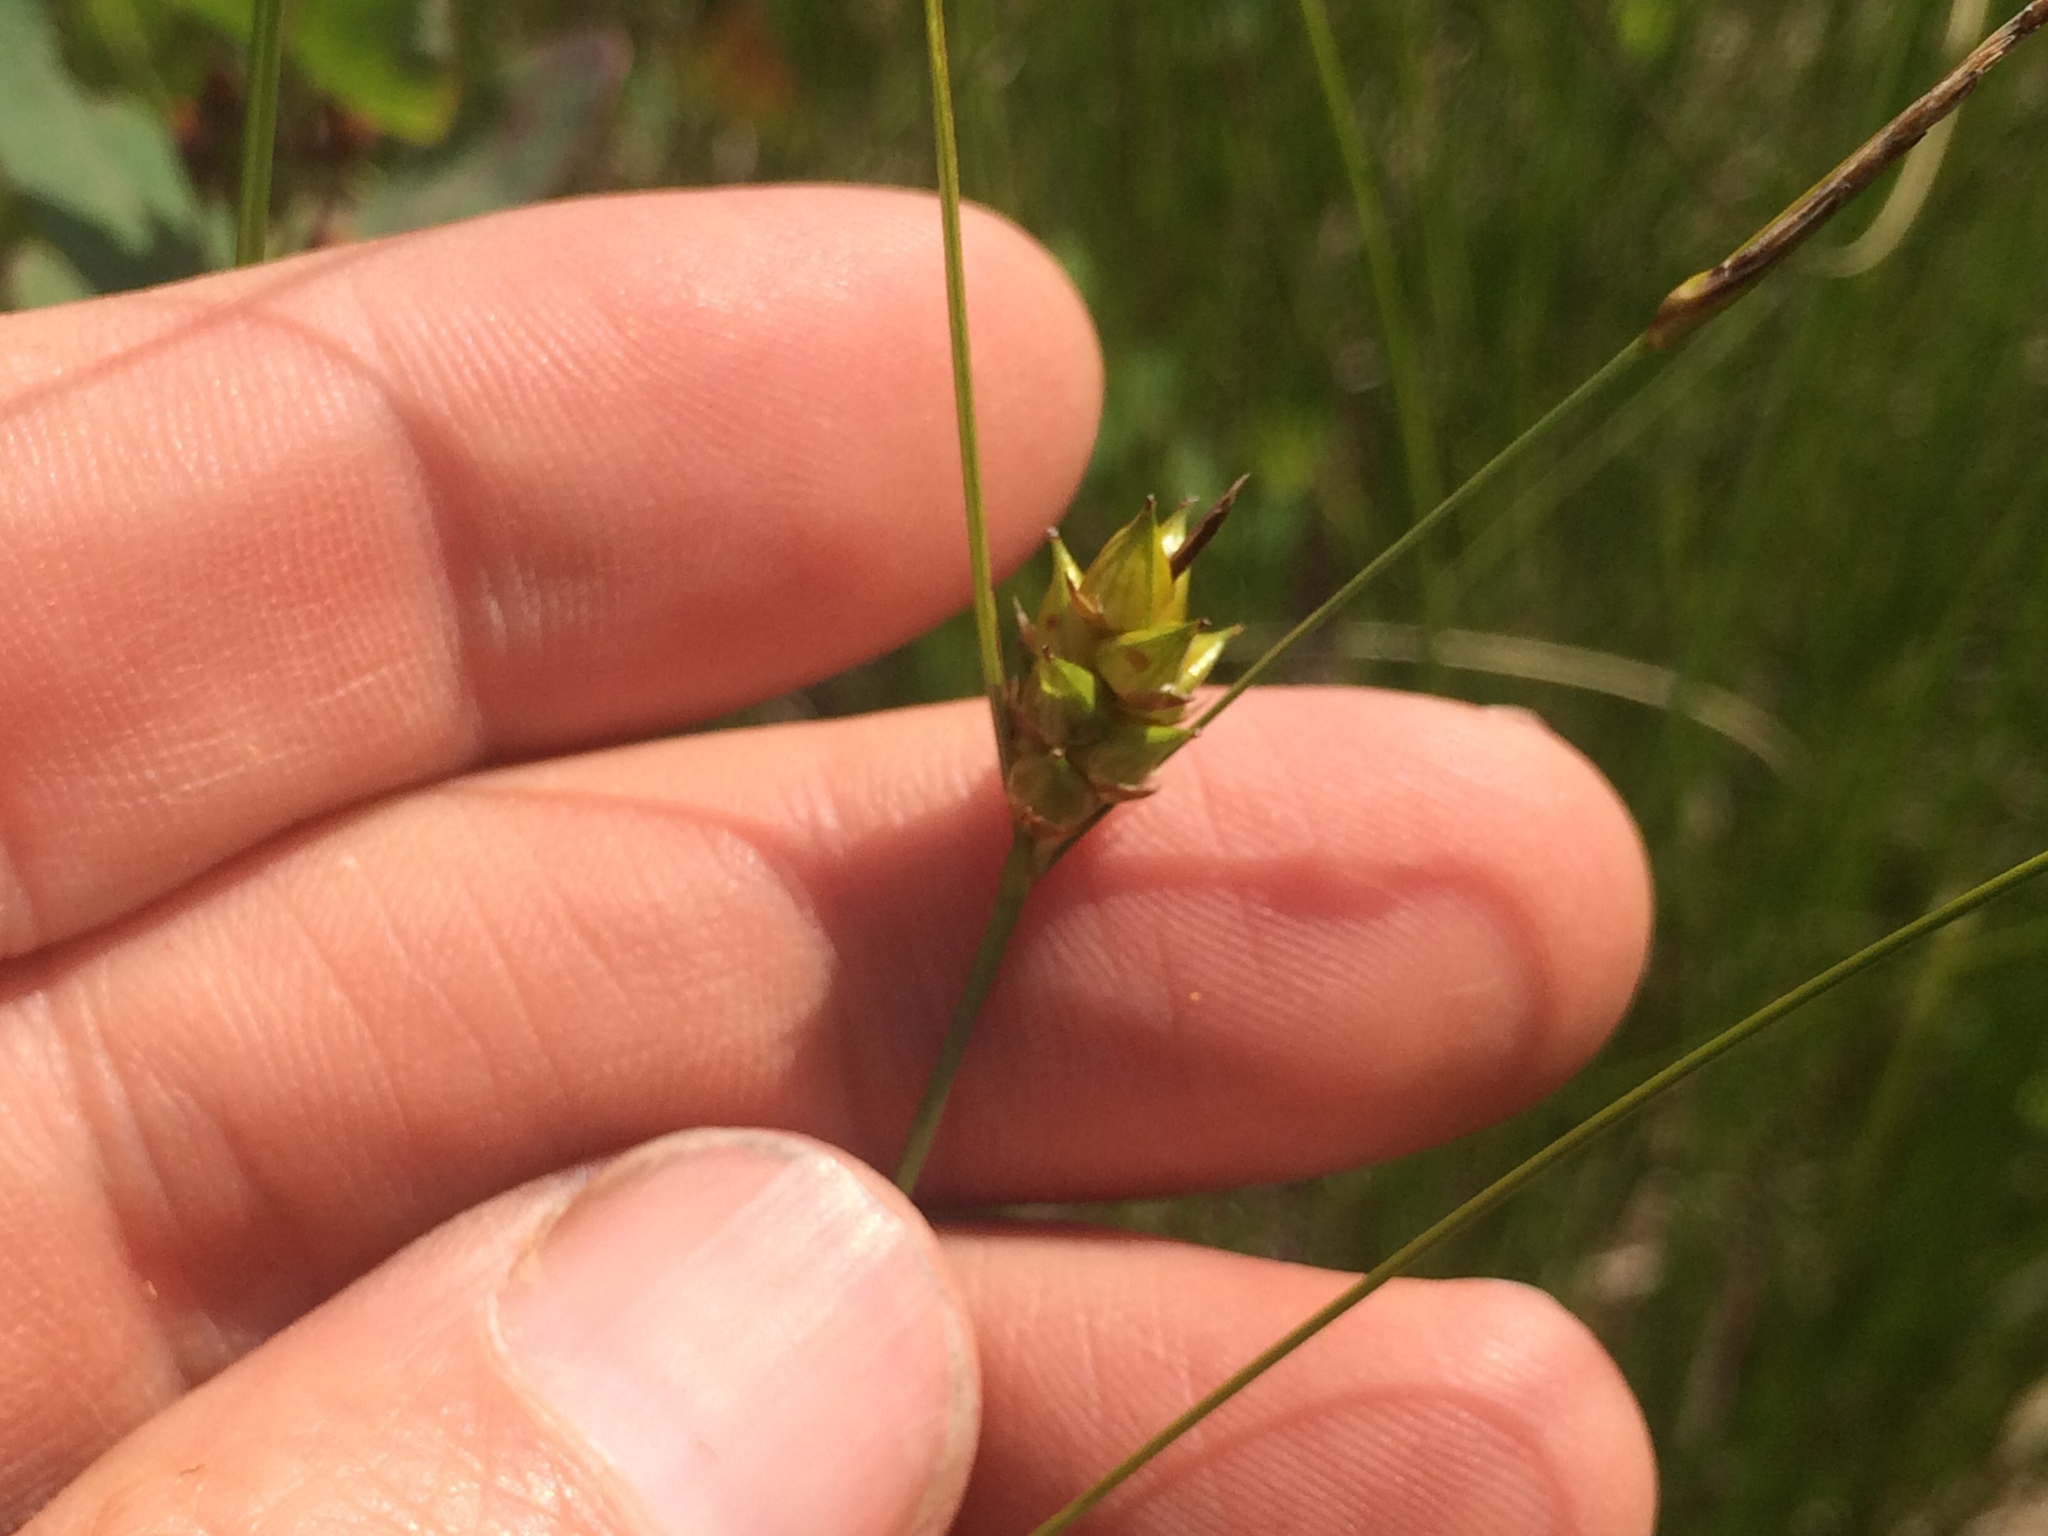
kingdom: Plantae
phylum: Tracheophyta
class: Liliopsida
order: Poales
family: Cyperaceae
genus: Carex
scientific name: Carex oligosperma
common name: Few-seed sedge
